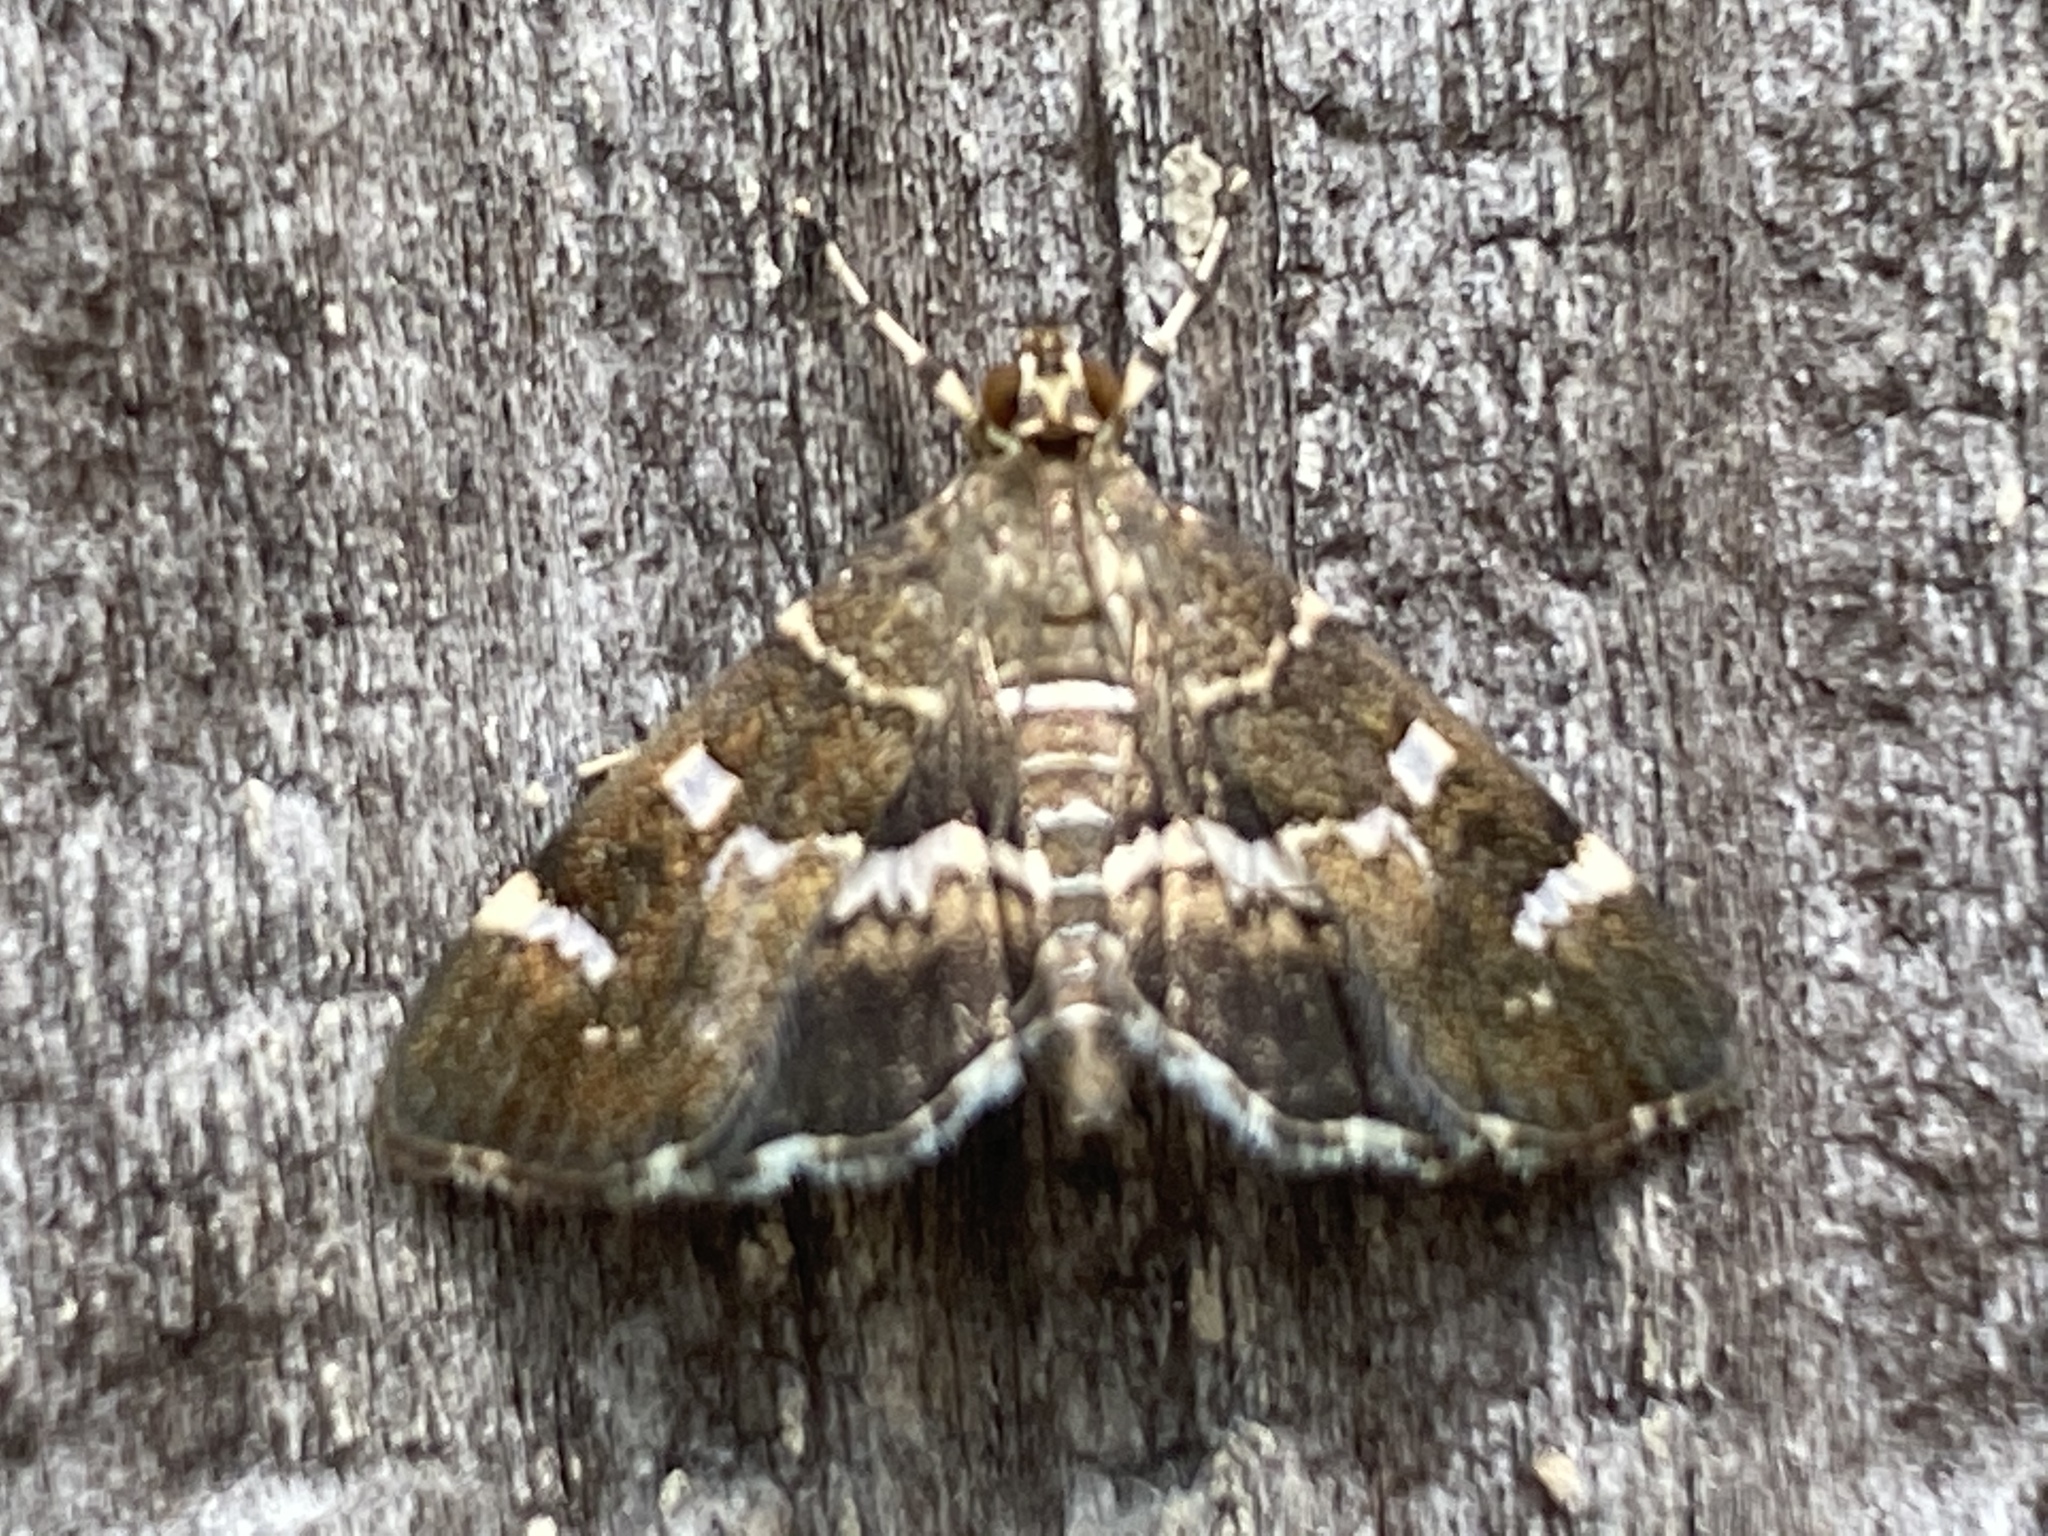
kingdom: Animalia
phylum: Arthropoda
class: Insecta
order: Lepidoptera
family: Crambidae
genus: Hymenia
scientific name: Hymenia perspectalis
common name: Spotted beet webworm
